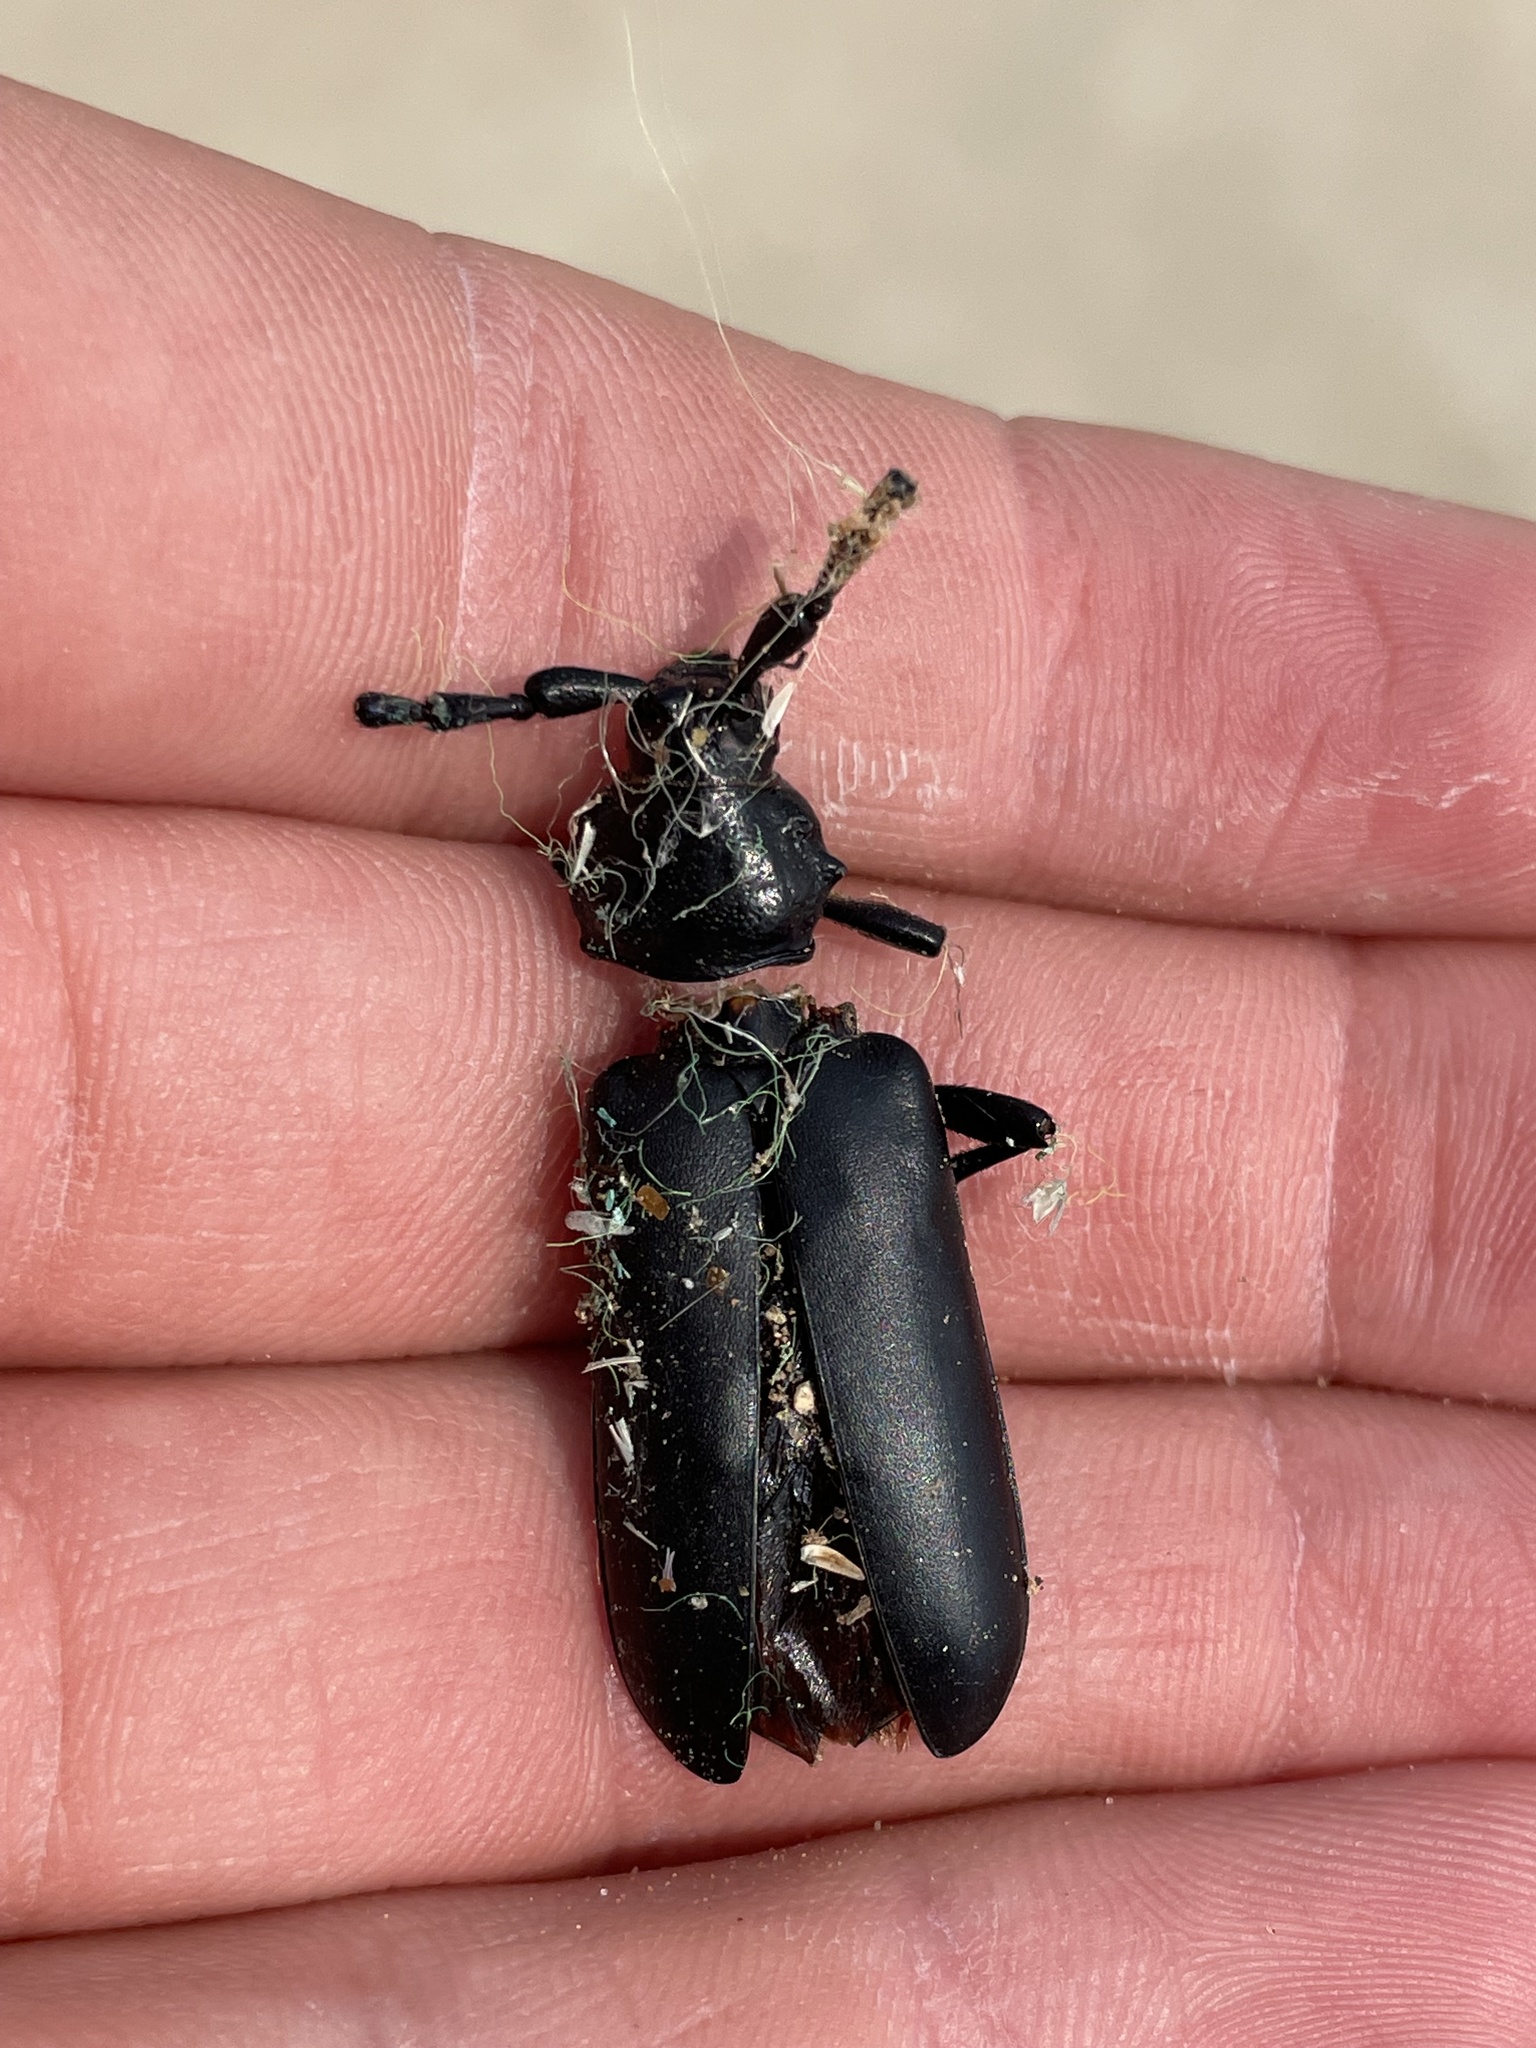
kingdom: Animalia
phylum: Arthropoda
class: Insecta
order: Coleoptera
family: Cerambycidae
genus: Stenaspis
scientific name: Stenaspis solitaria
